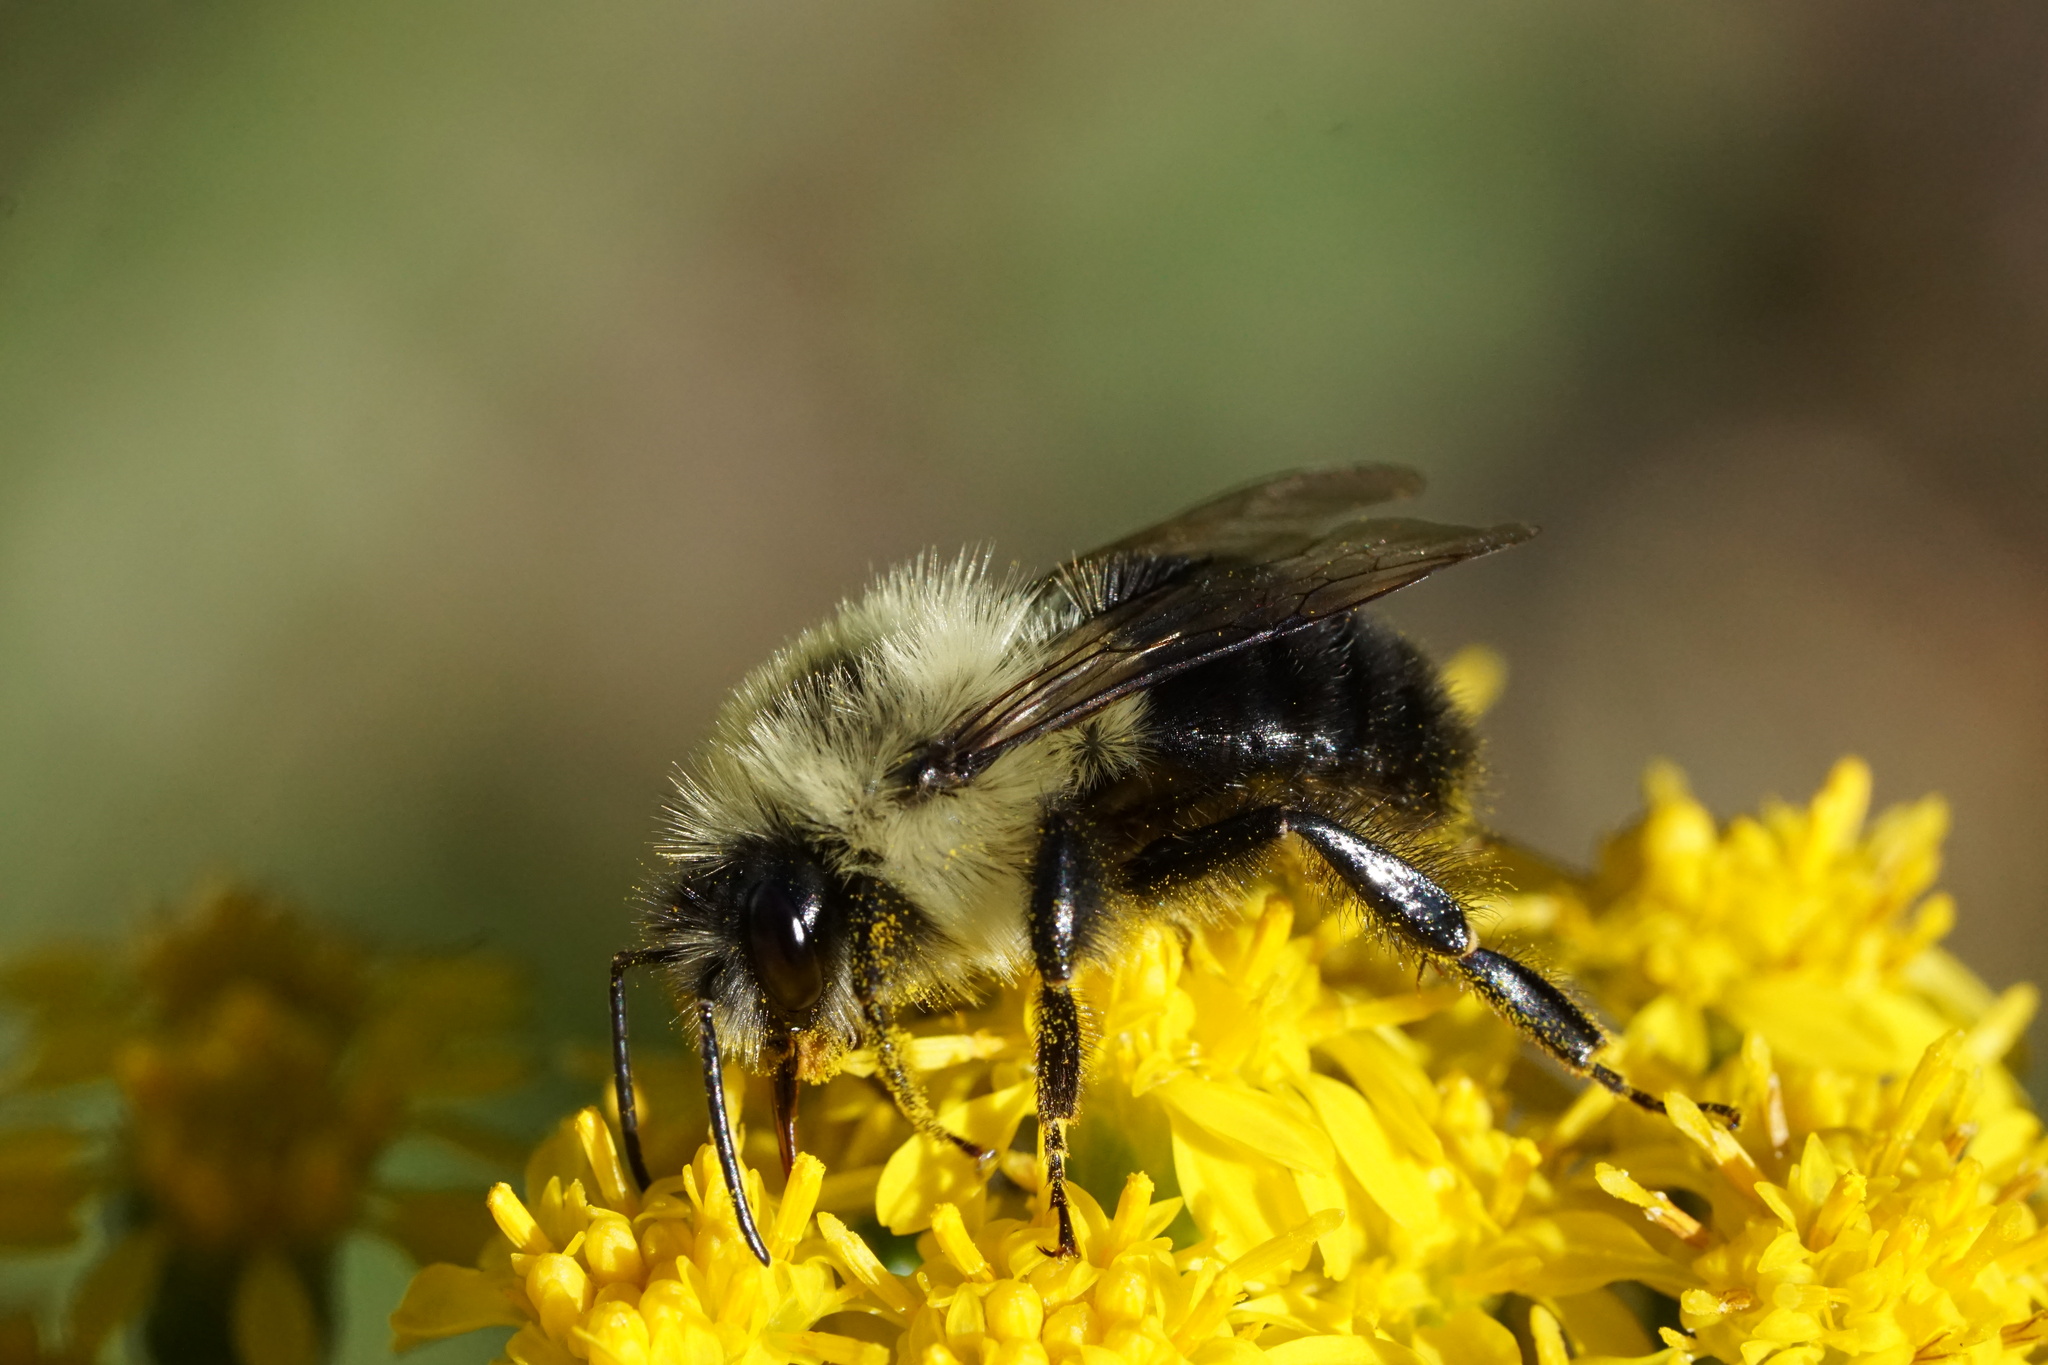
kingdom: Animalia
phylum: Arthropoda
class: Insecta
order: Hymenoptera
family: Apidae
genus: Bombus
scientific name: Bombus impatiens
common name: Common eastern bumble bee
